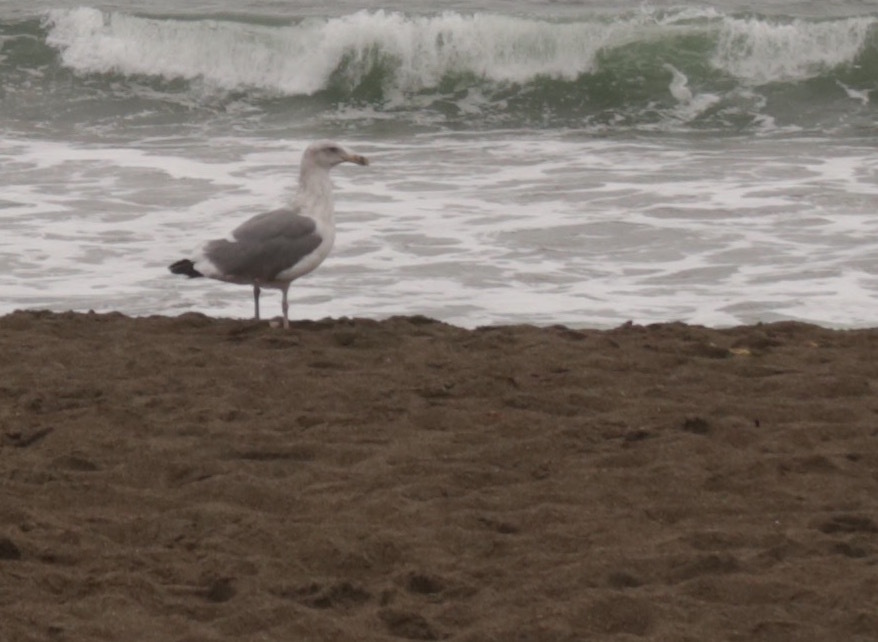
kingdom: Animalia
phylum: Chordata
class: Aves
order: Charadriiformes
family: Laridae
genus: Larus
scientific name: Larus occidentalis
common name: Western gull
